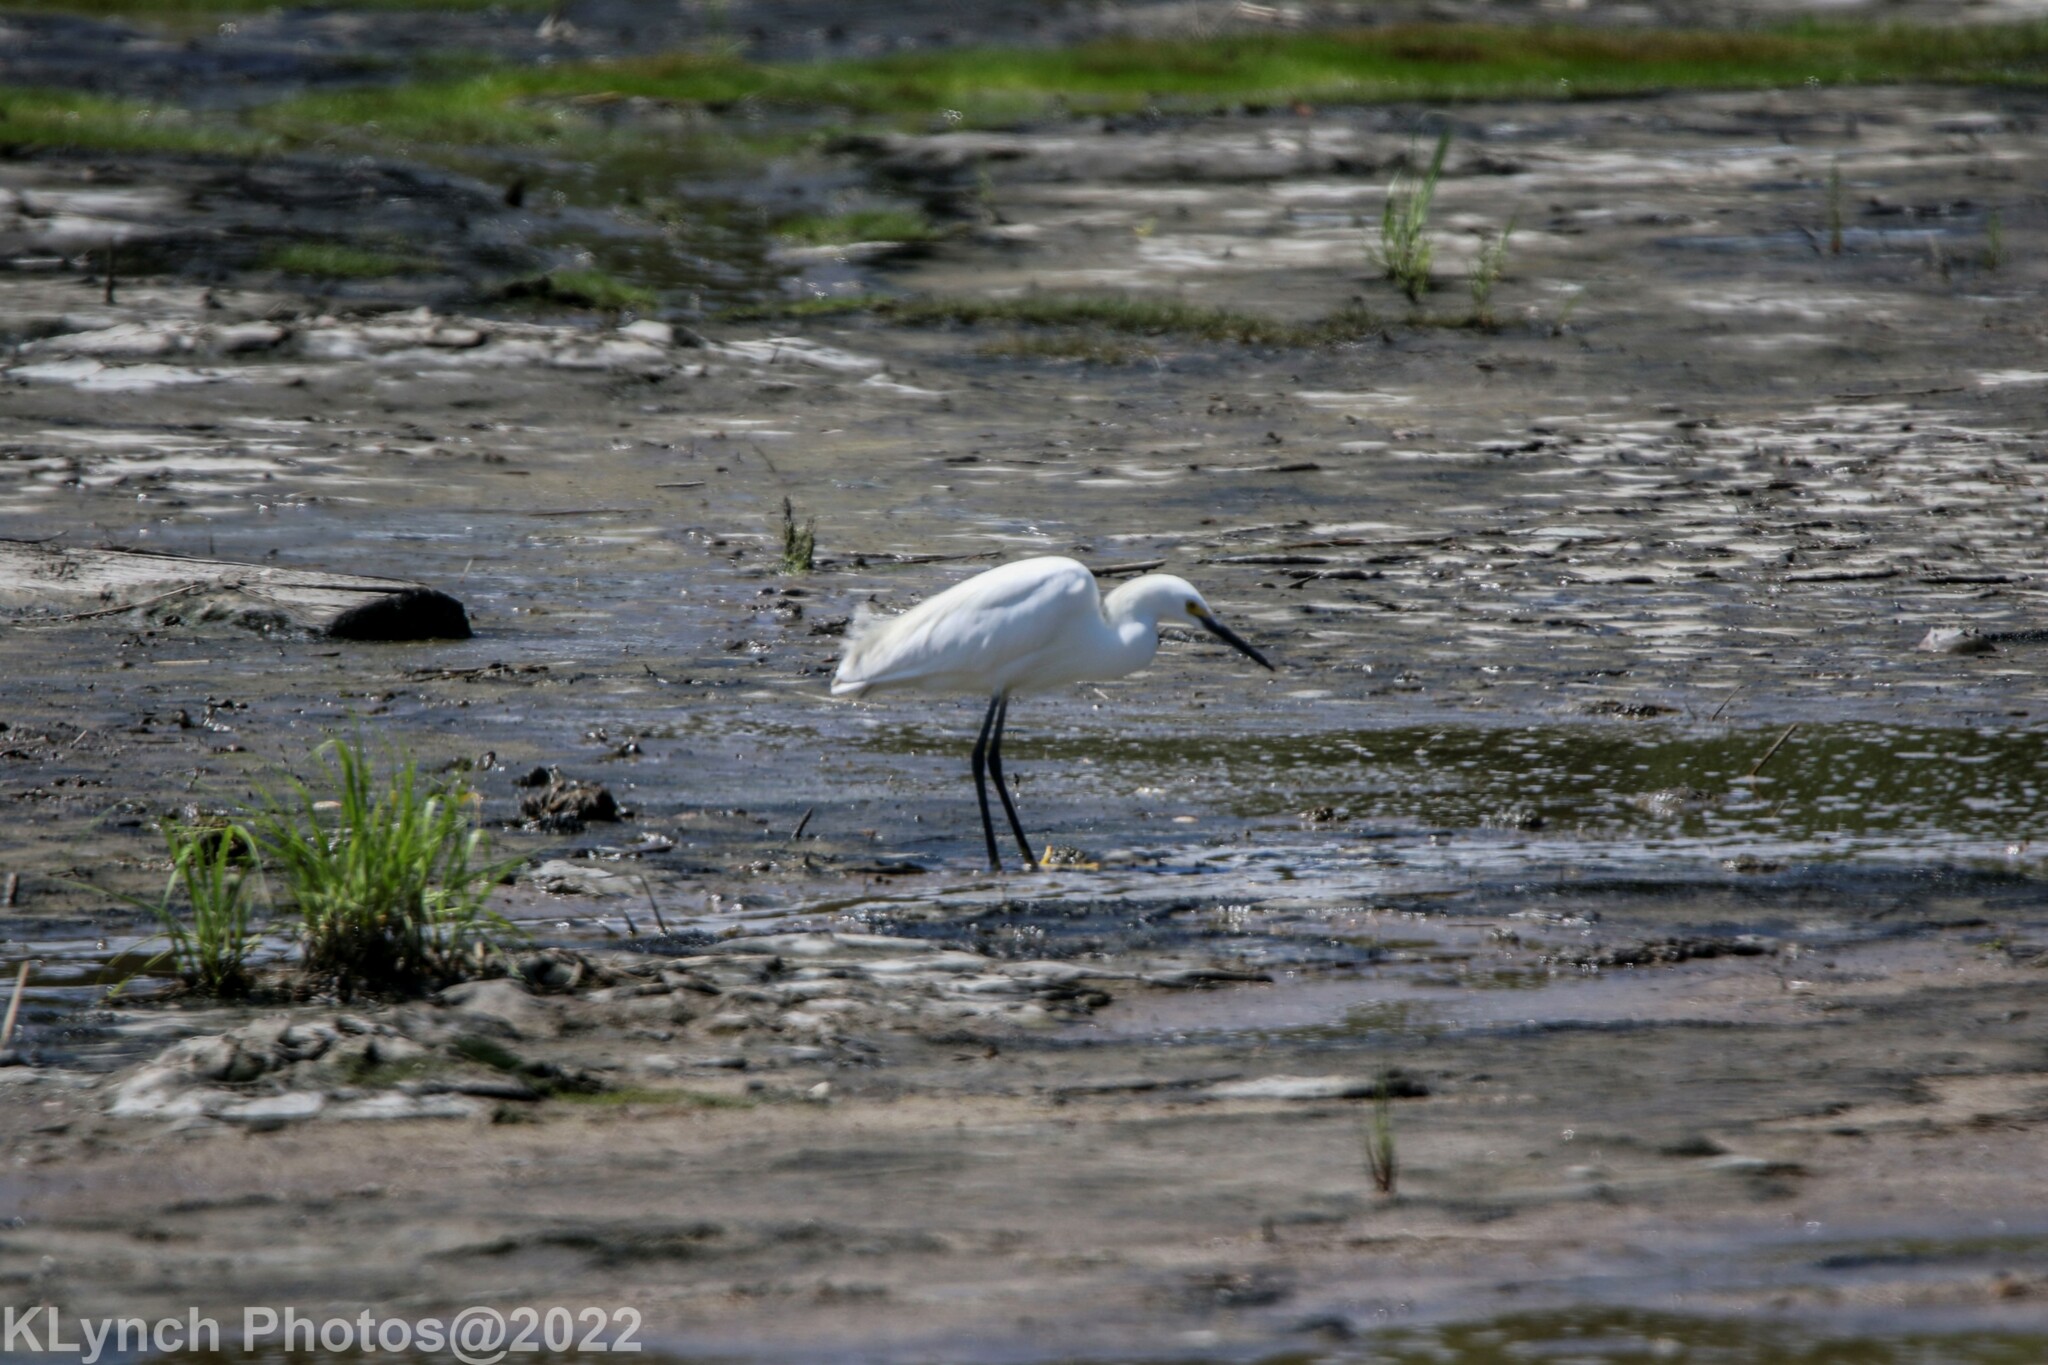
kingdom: Animalia
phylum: Chordata
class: Aves
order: Pelecaniformes
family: Ardeidae
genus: Egretta
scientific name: Egretta thula
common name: Snowy egret
